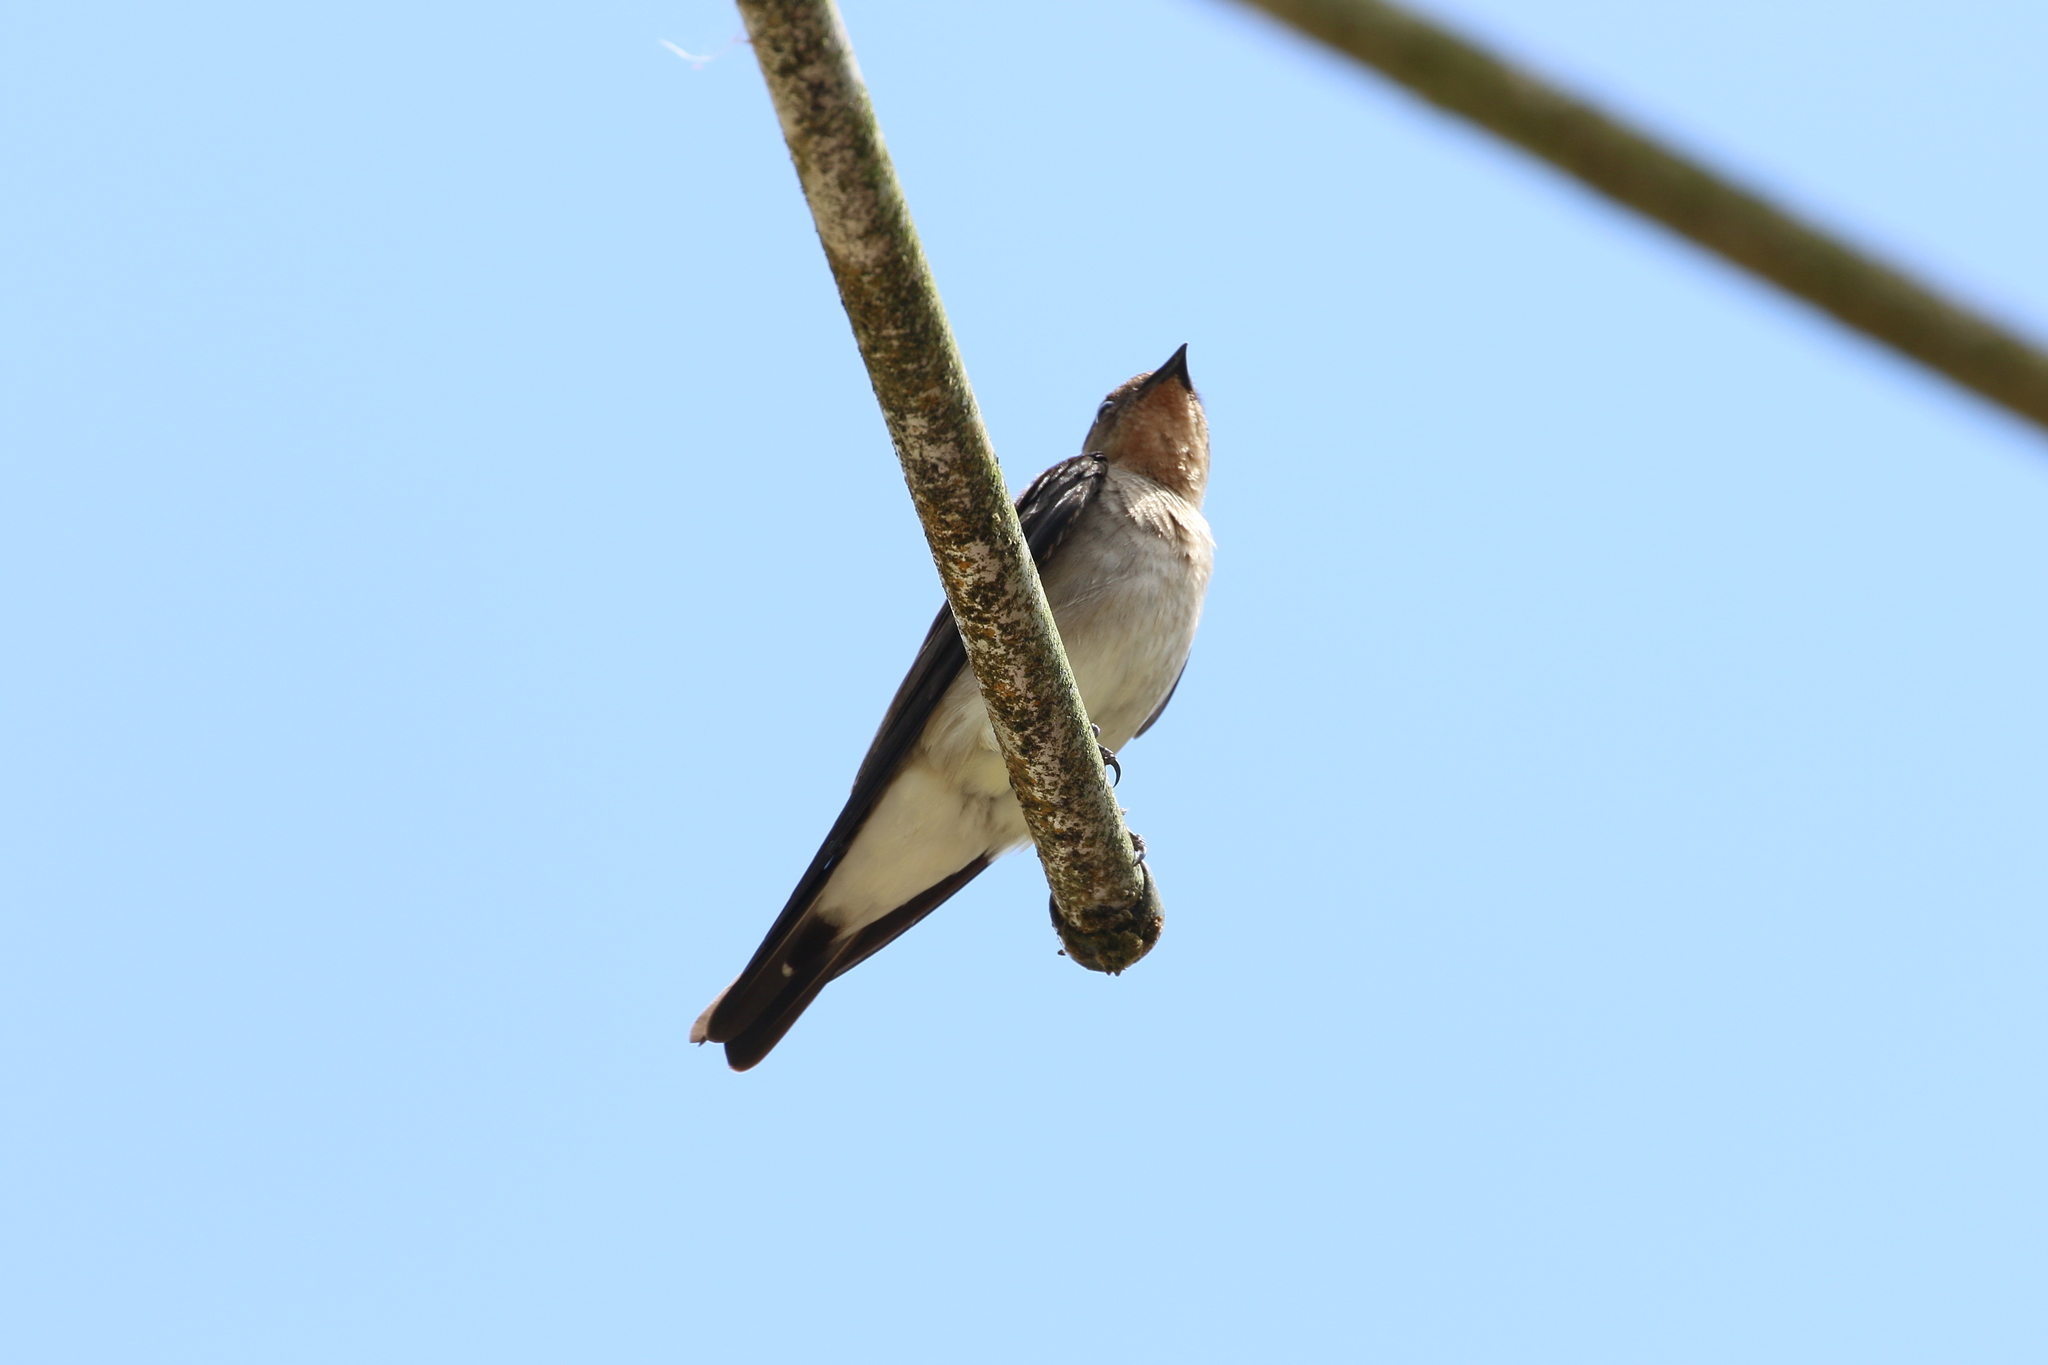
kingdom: Animalia
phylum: Chordata
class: Aves
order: Passeriformes
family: Hirundinidae
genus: Stelgidopteryx
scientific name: Stelgidopteryx ruficollis
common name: Southern rough-winged swallow
